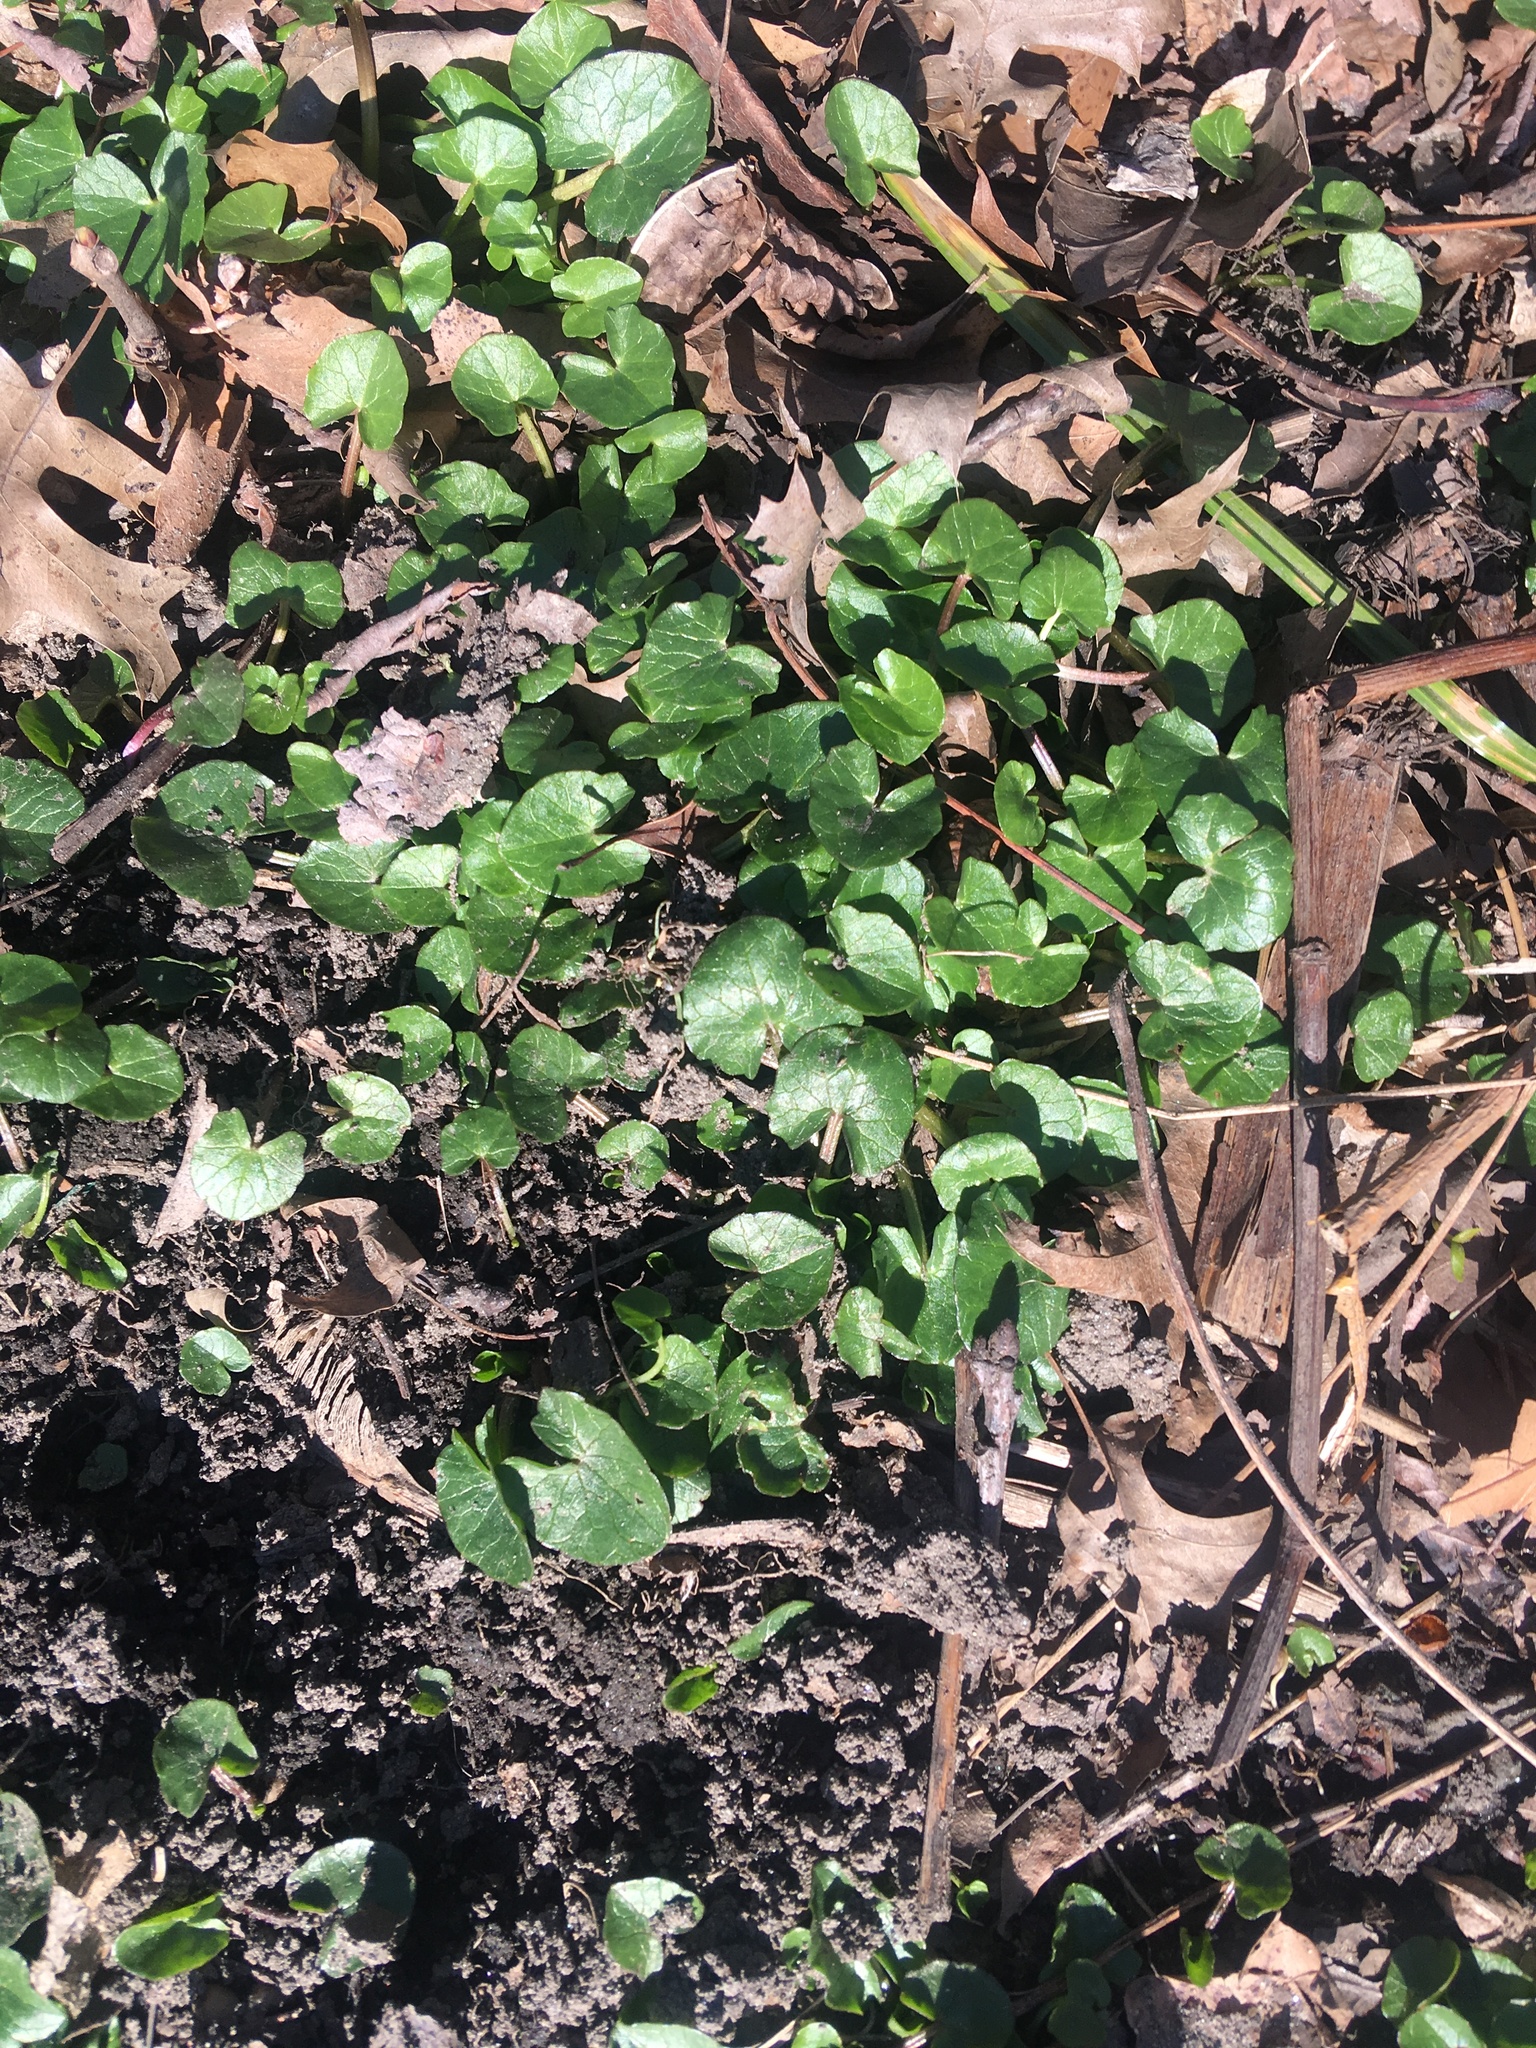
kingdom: Plantae
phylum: Tracheophyta
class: Magnoliopsida
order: Ranunculales
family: Ranunculaceae
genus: Ficaria
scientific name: Ficaria verna
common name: Lesser celandine
